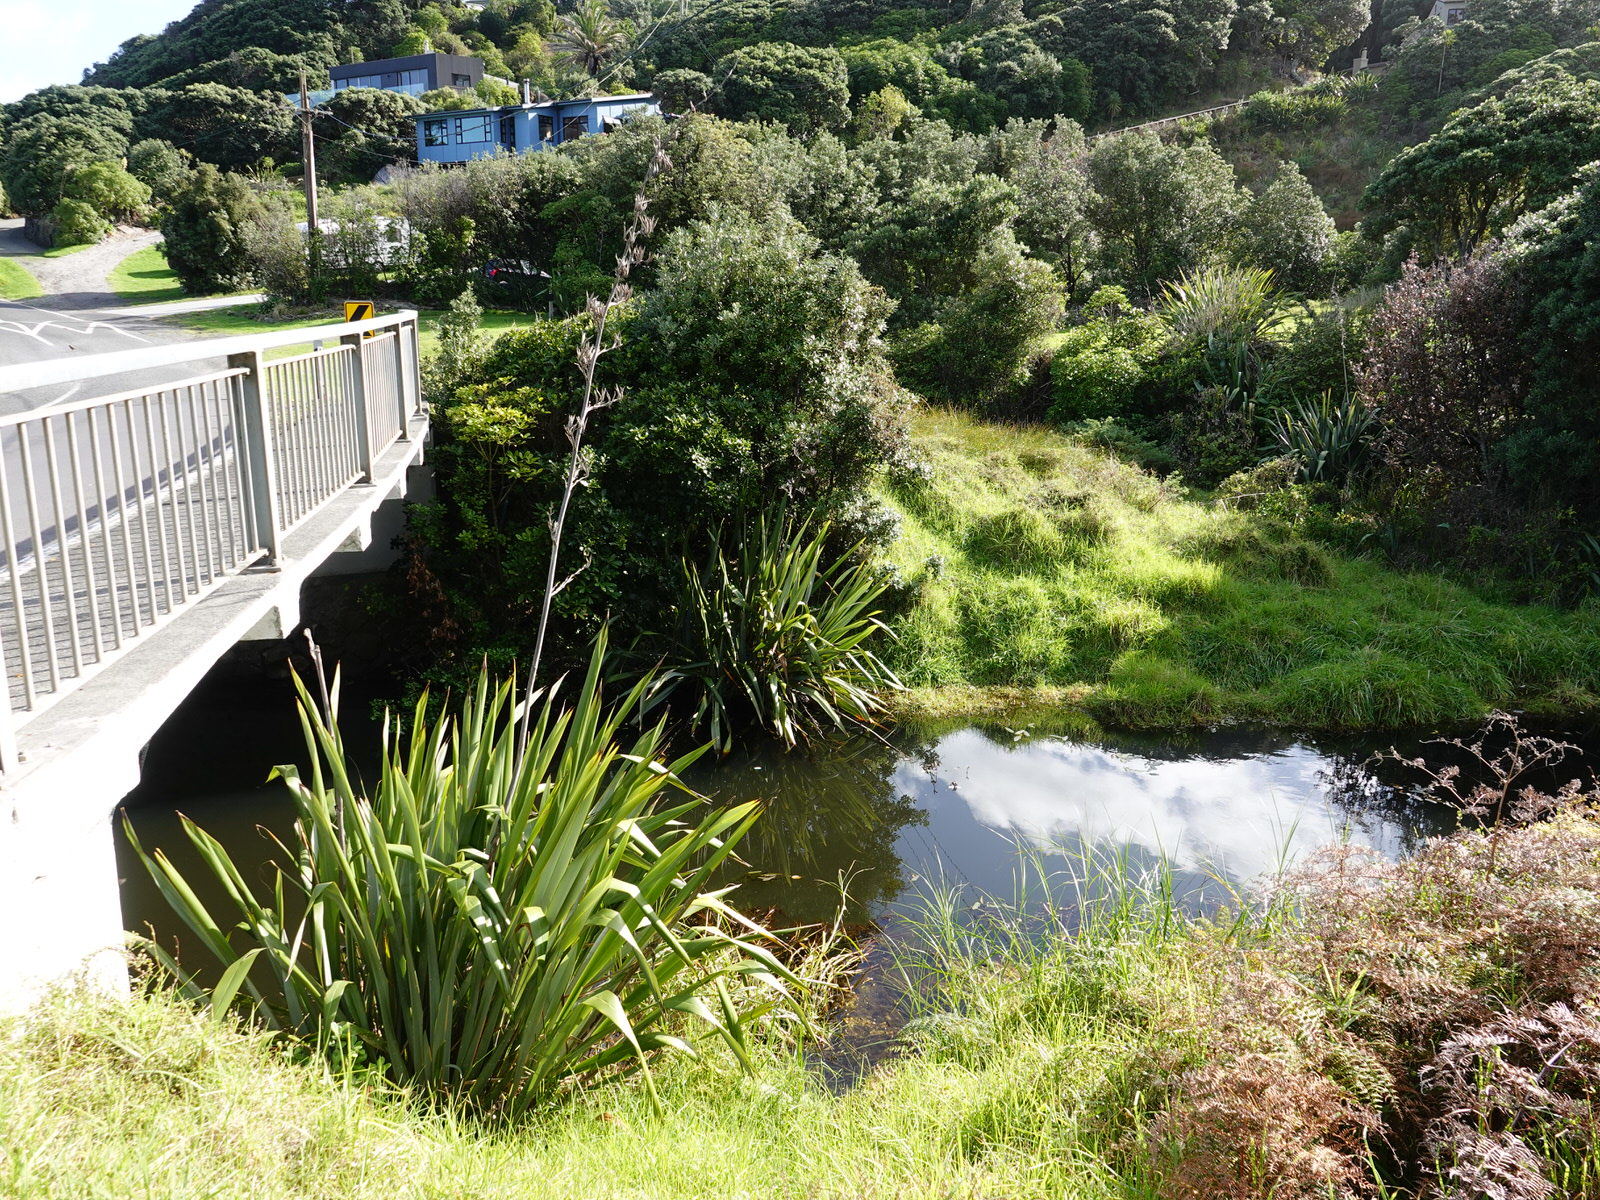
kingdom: Plantae
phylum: Tracheophyta
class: Liliopsida
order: Asparagales
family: Asphodelaceae
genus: Phormium
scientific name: Phormium tenax
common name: New zealand flax
